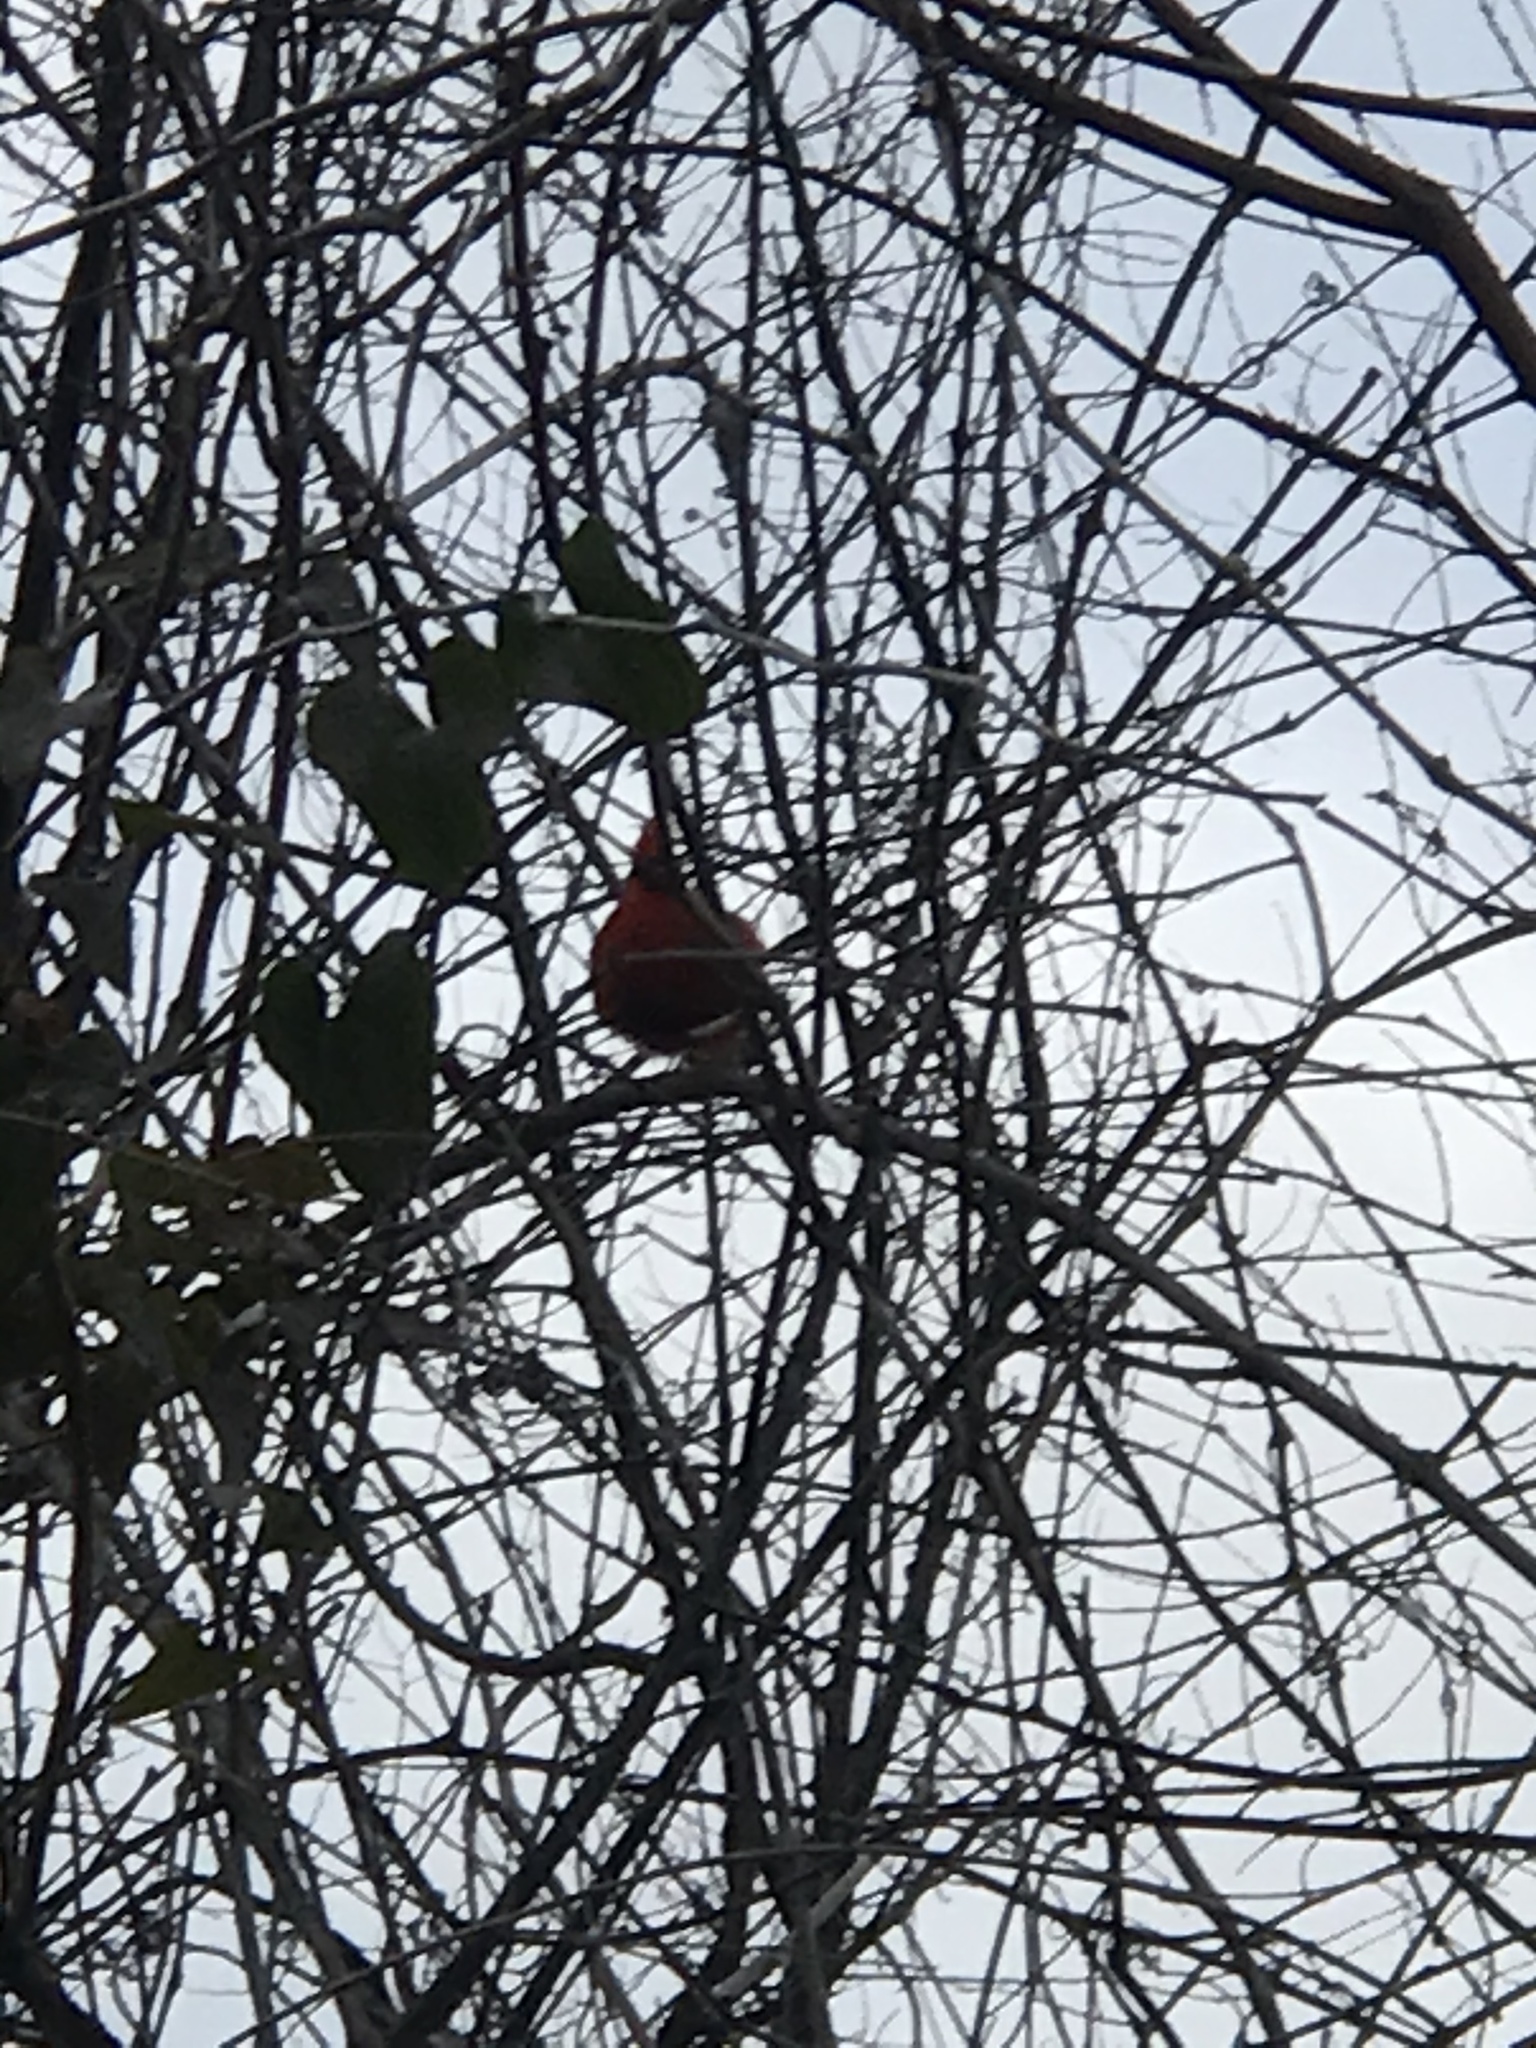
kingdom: Animalia
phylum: Chordata
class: Aves
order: Passeriformes
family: Cardinalidae
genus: Cardinalis
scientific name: Cardinalis cardinalis
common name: Northern cardinal
